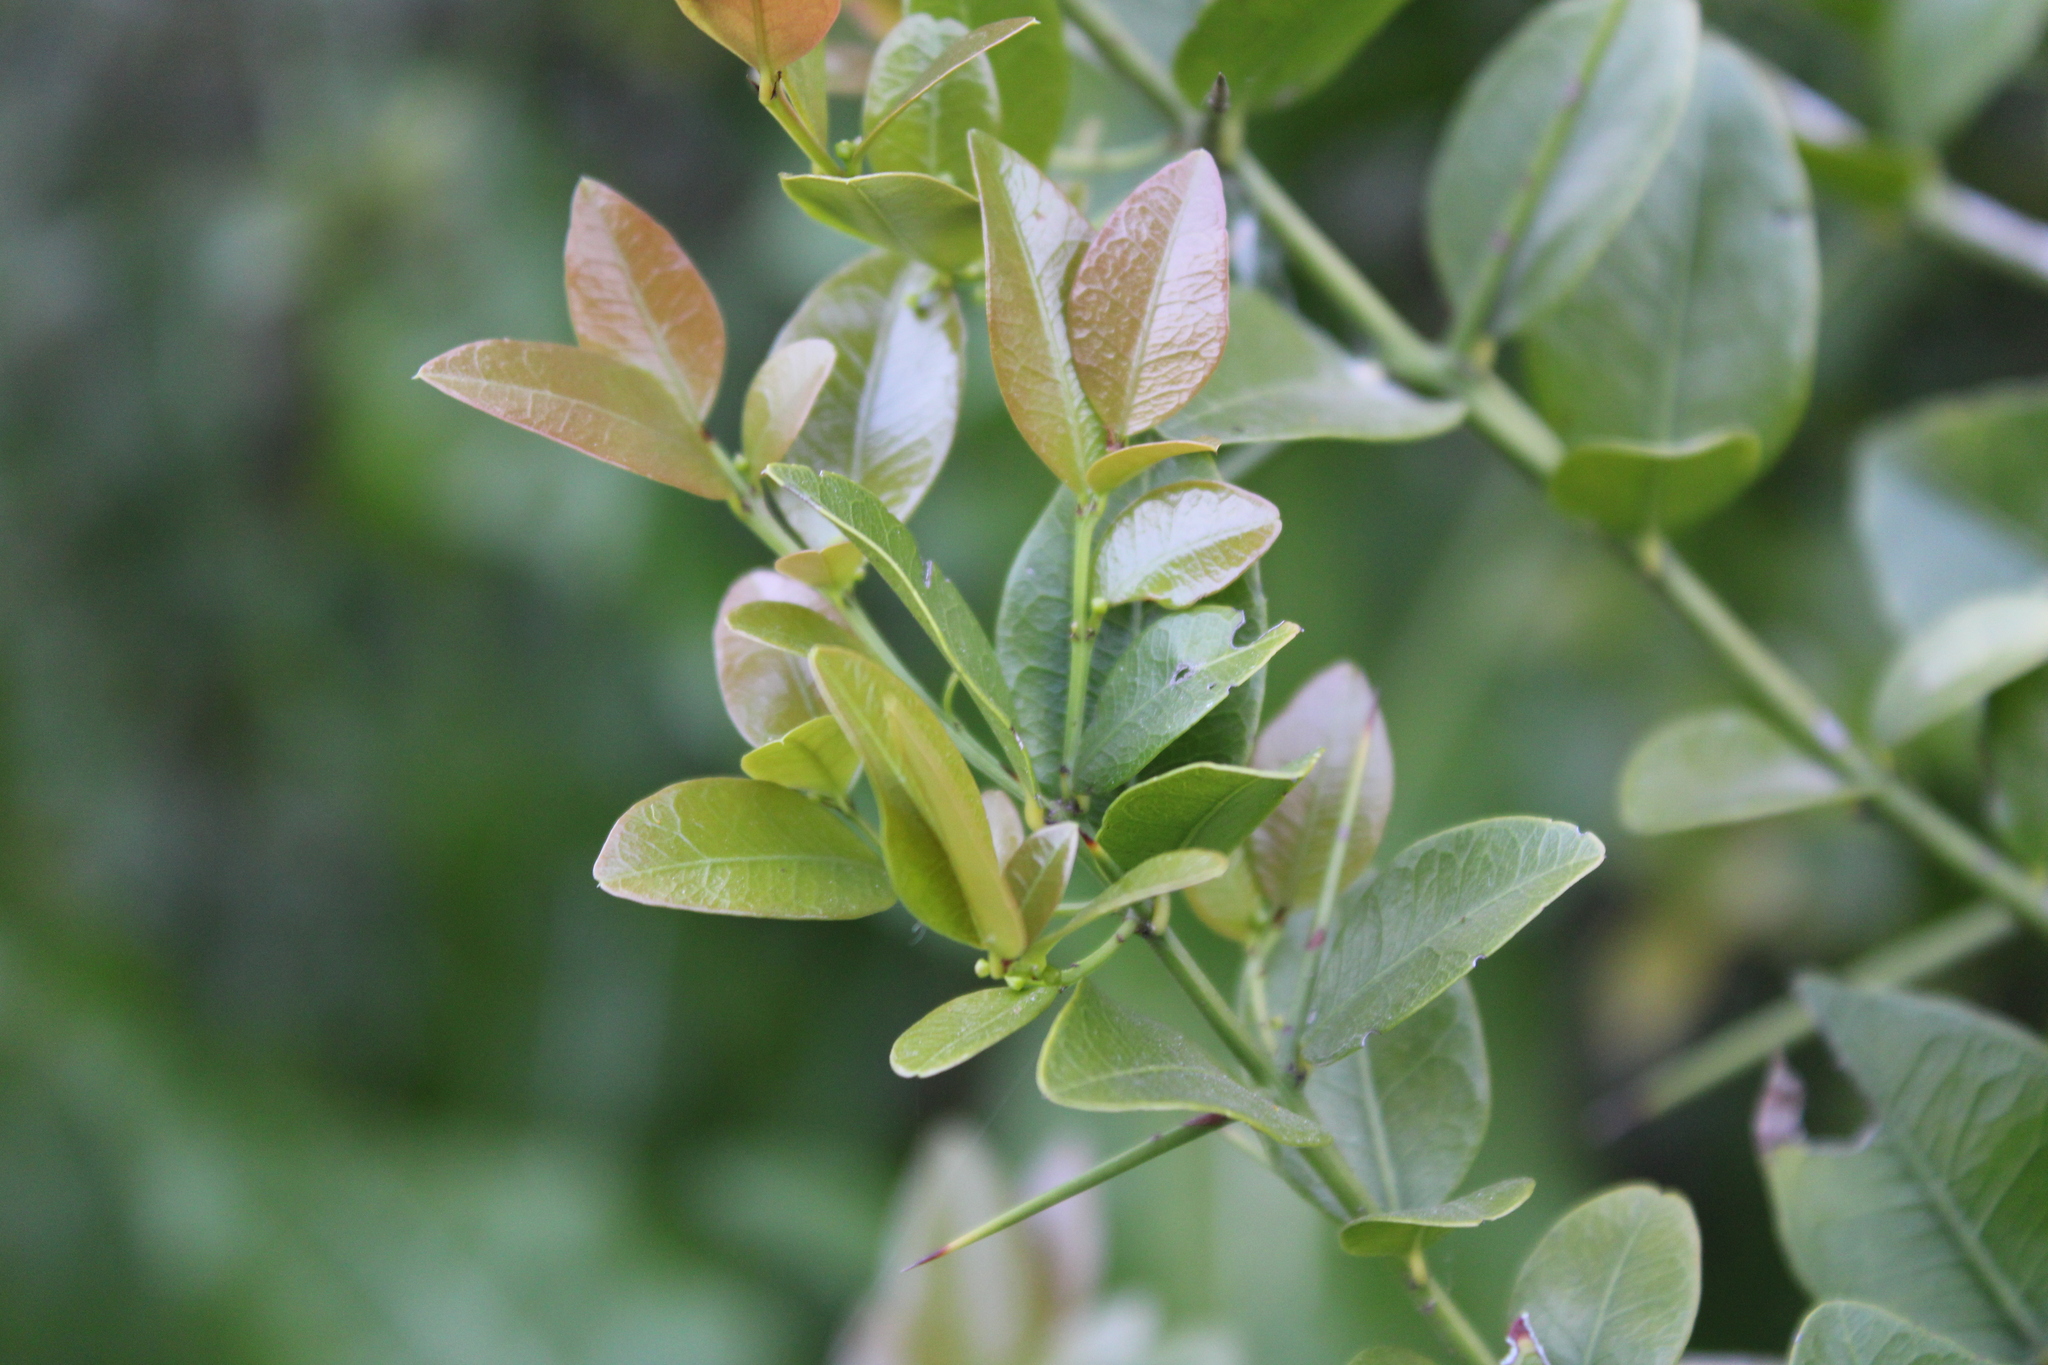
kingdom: Plantae
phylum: Tracheophyta
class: Magnoliopsida
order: Rosales
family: Rhamnaceae
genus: Scutia
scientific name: Scutia buxifolia
